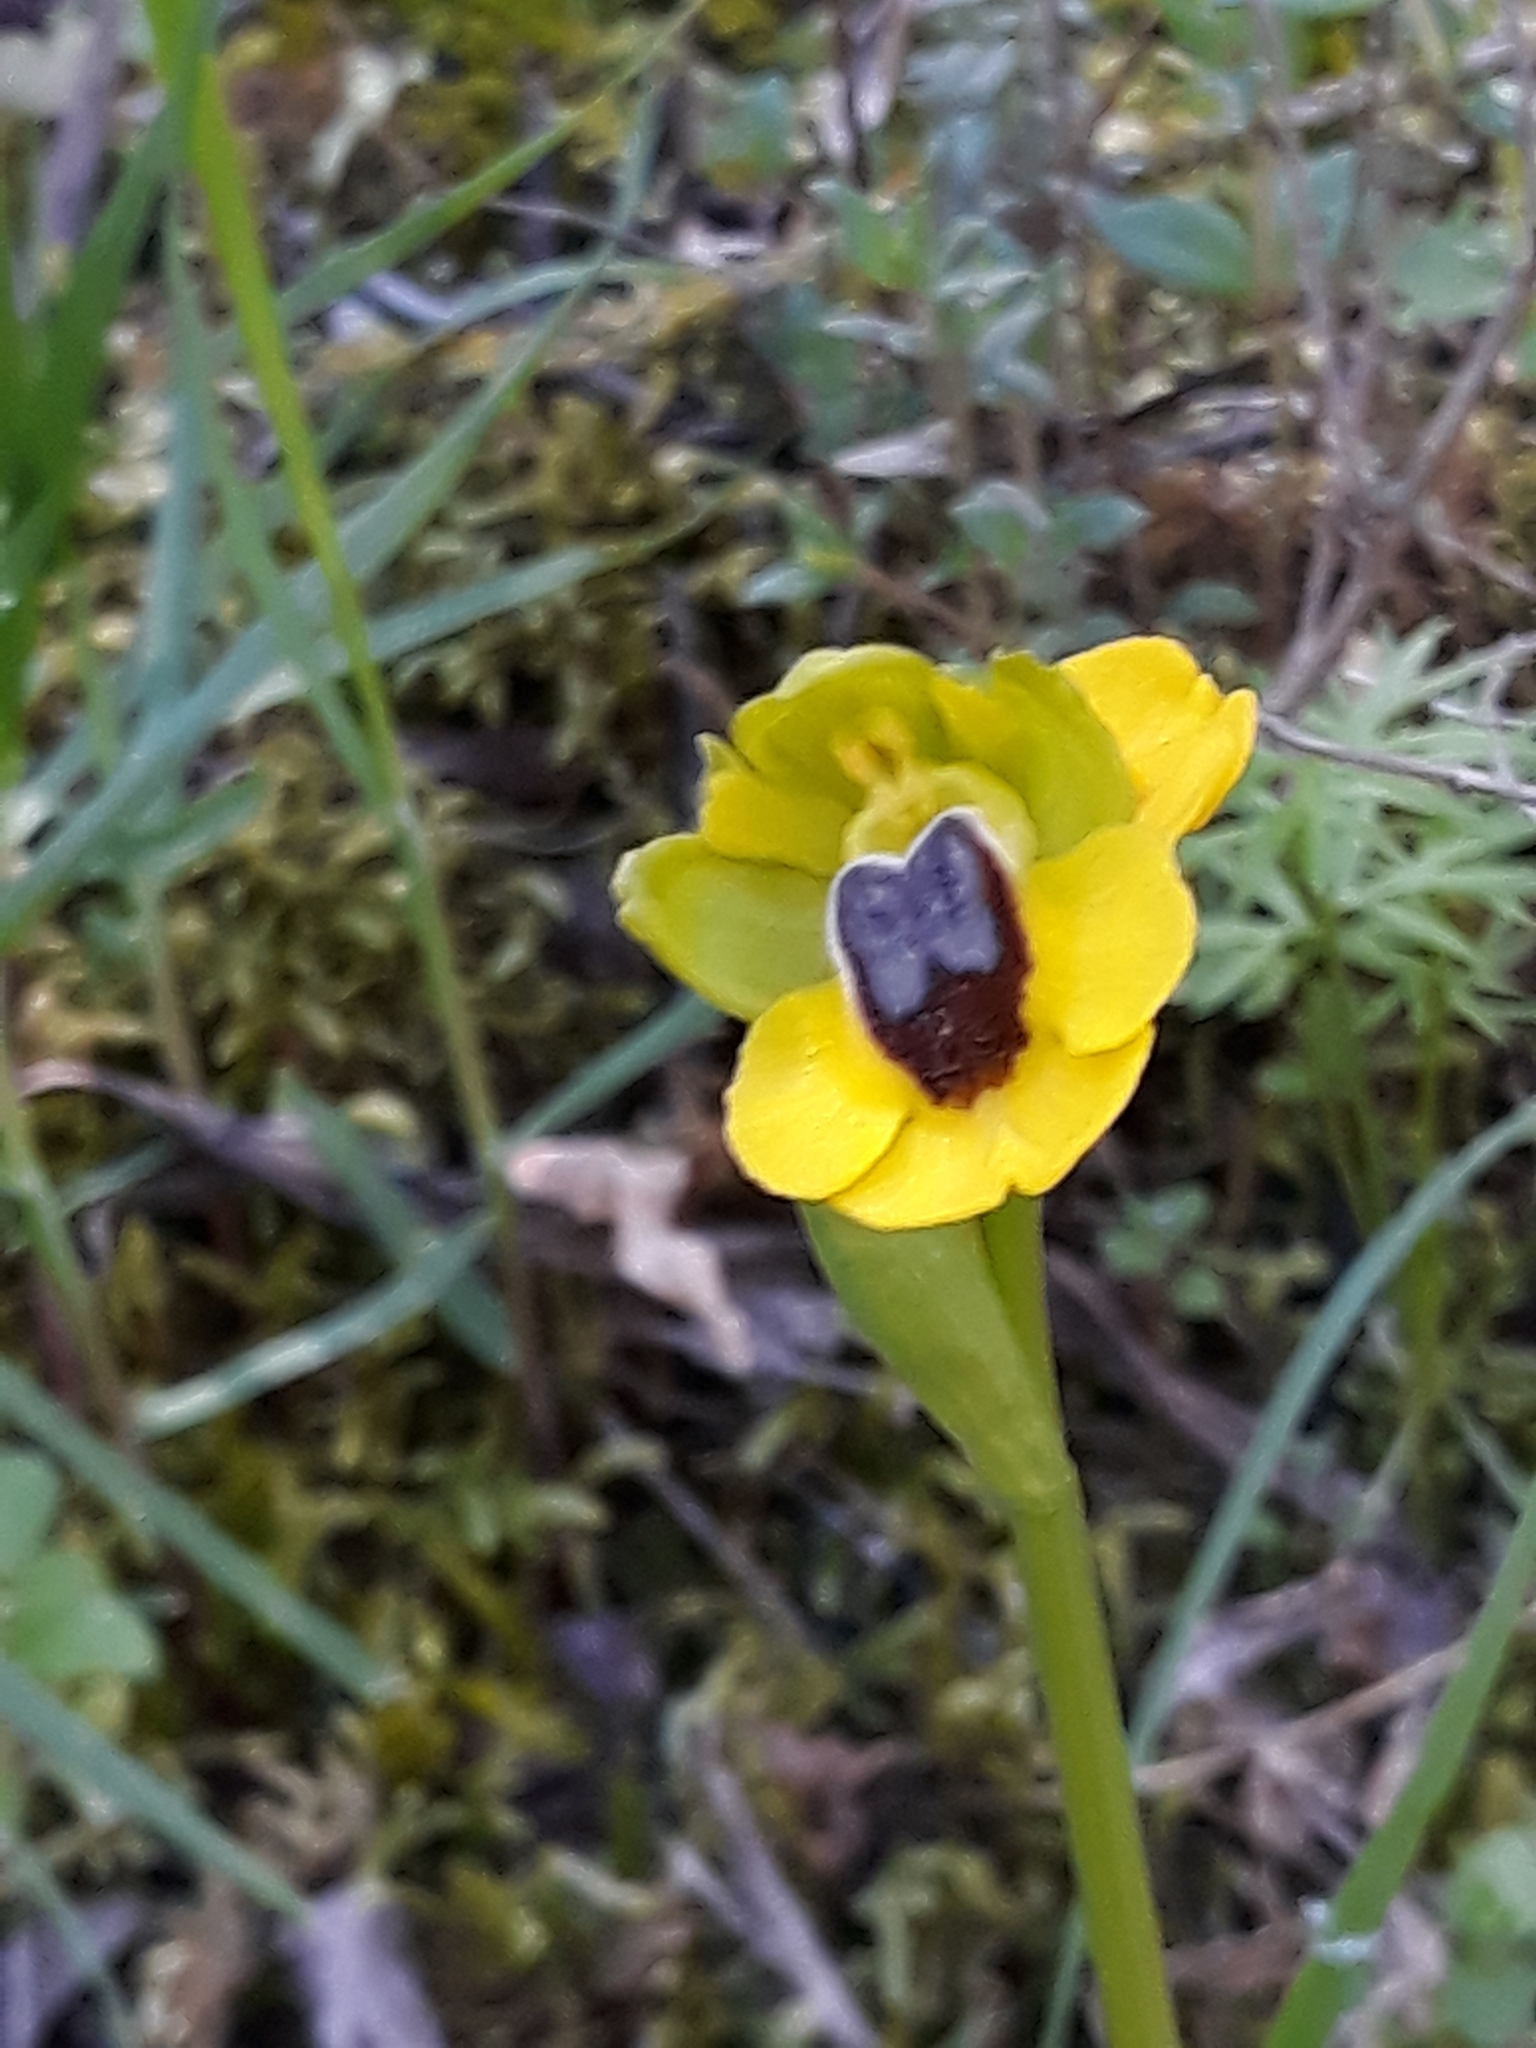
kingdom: Plantae
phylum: Tracheophyta
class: Liliopsida
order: Asparagales
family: Orchidaceae
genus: Ophrys
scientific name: Ophrys lutea
